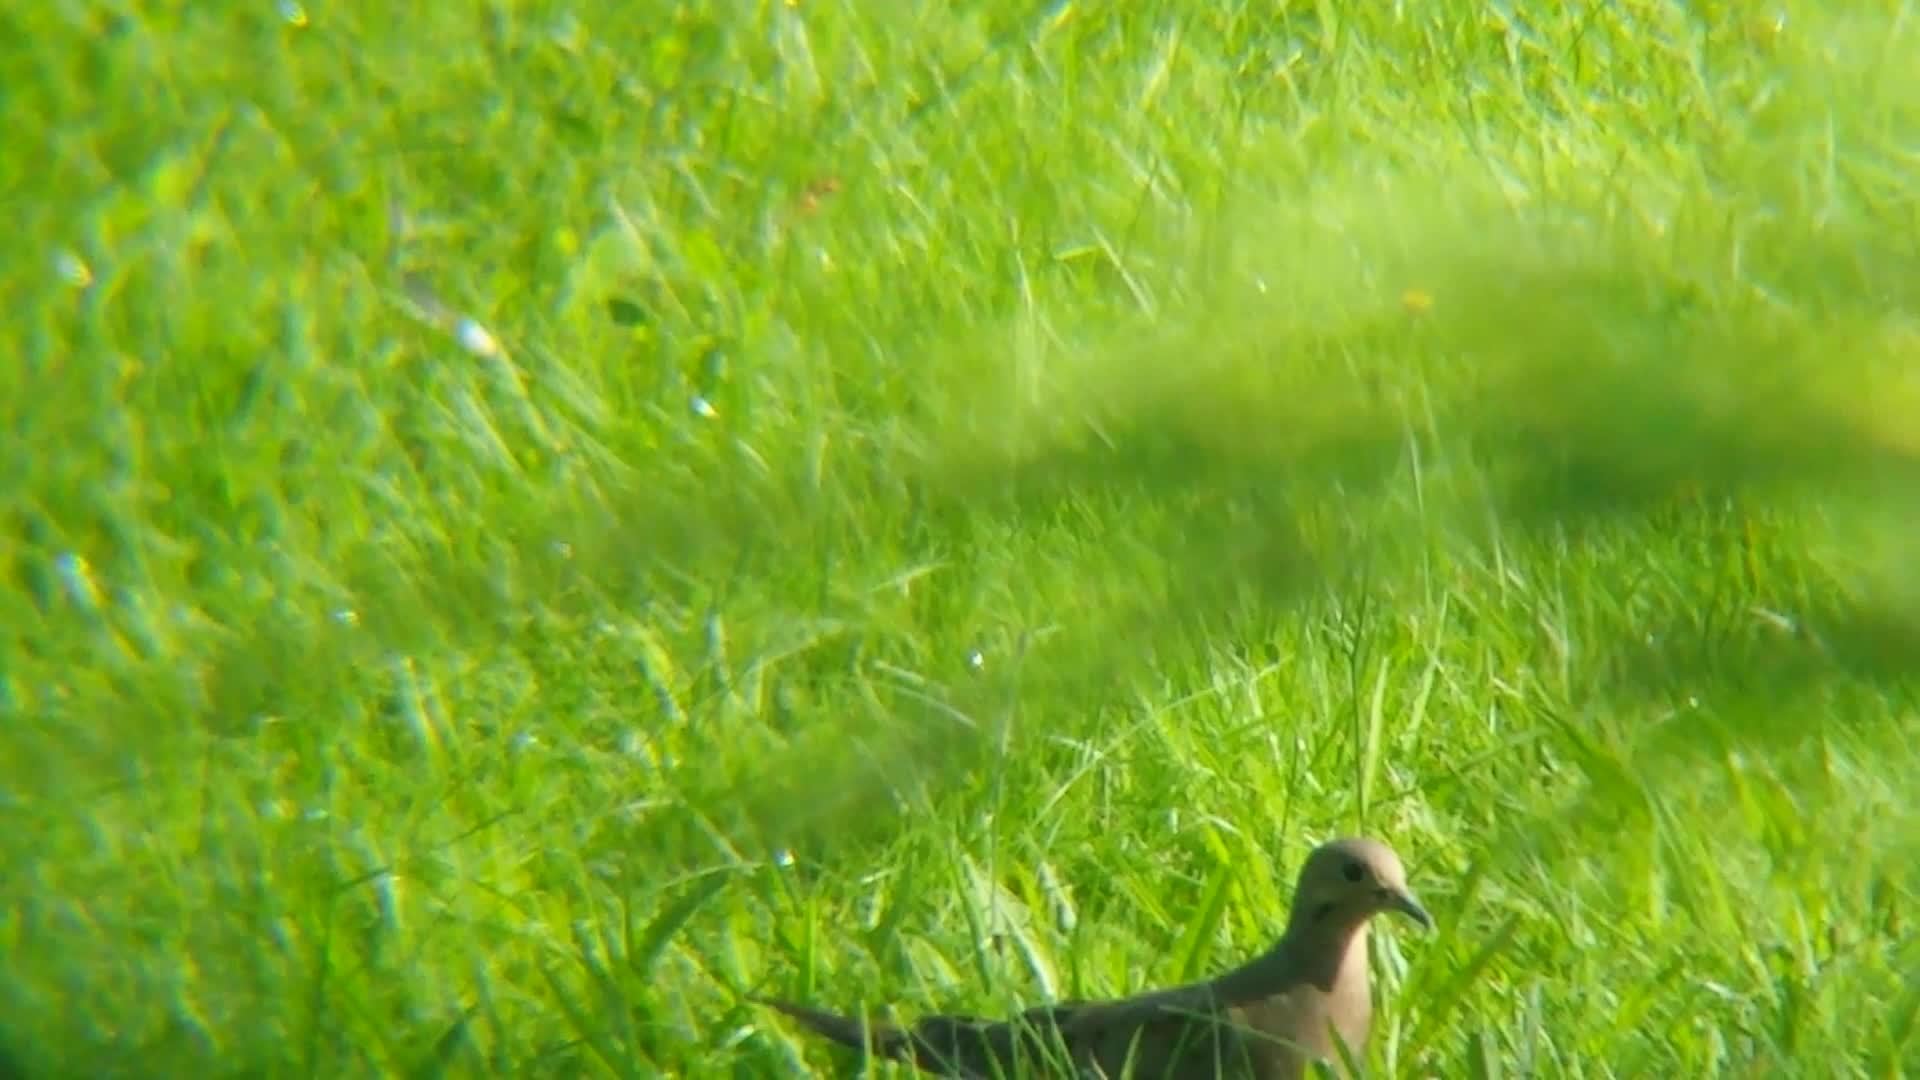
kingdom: Animalia
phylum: Chordata
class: Aves
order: Columbiformes
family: Columbidae
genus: Zenaida
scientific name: Zenaida macroura
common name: Mourning dove
